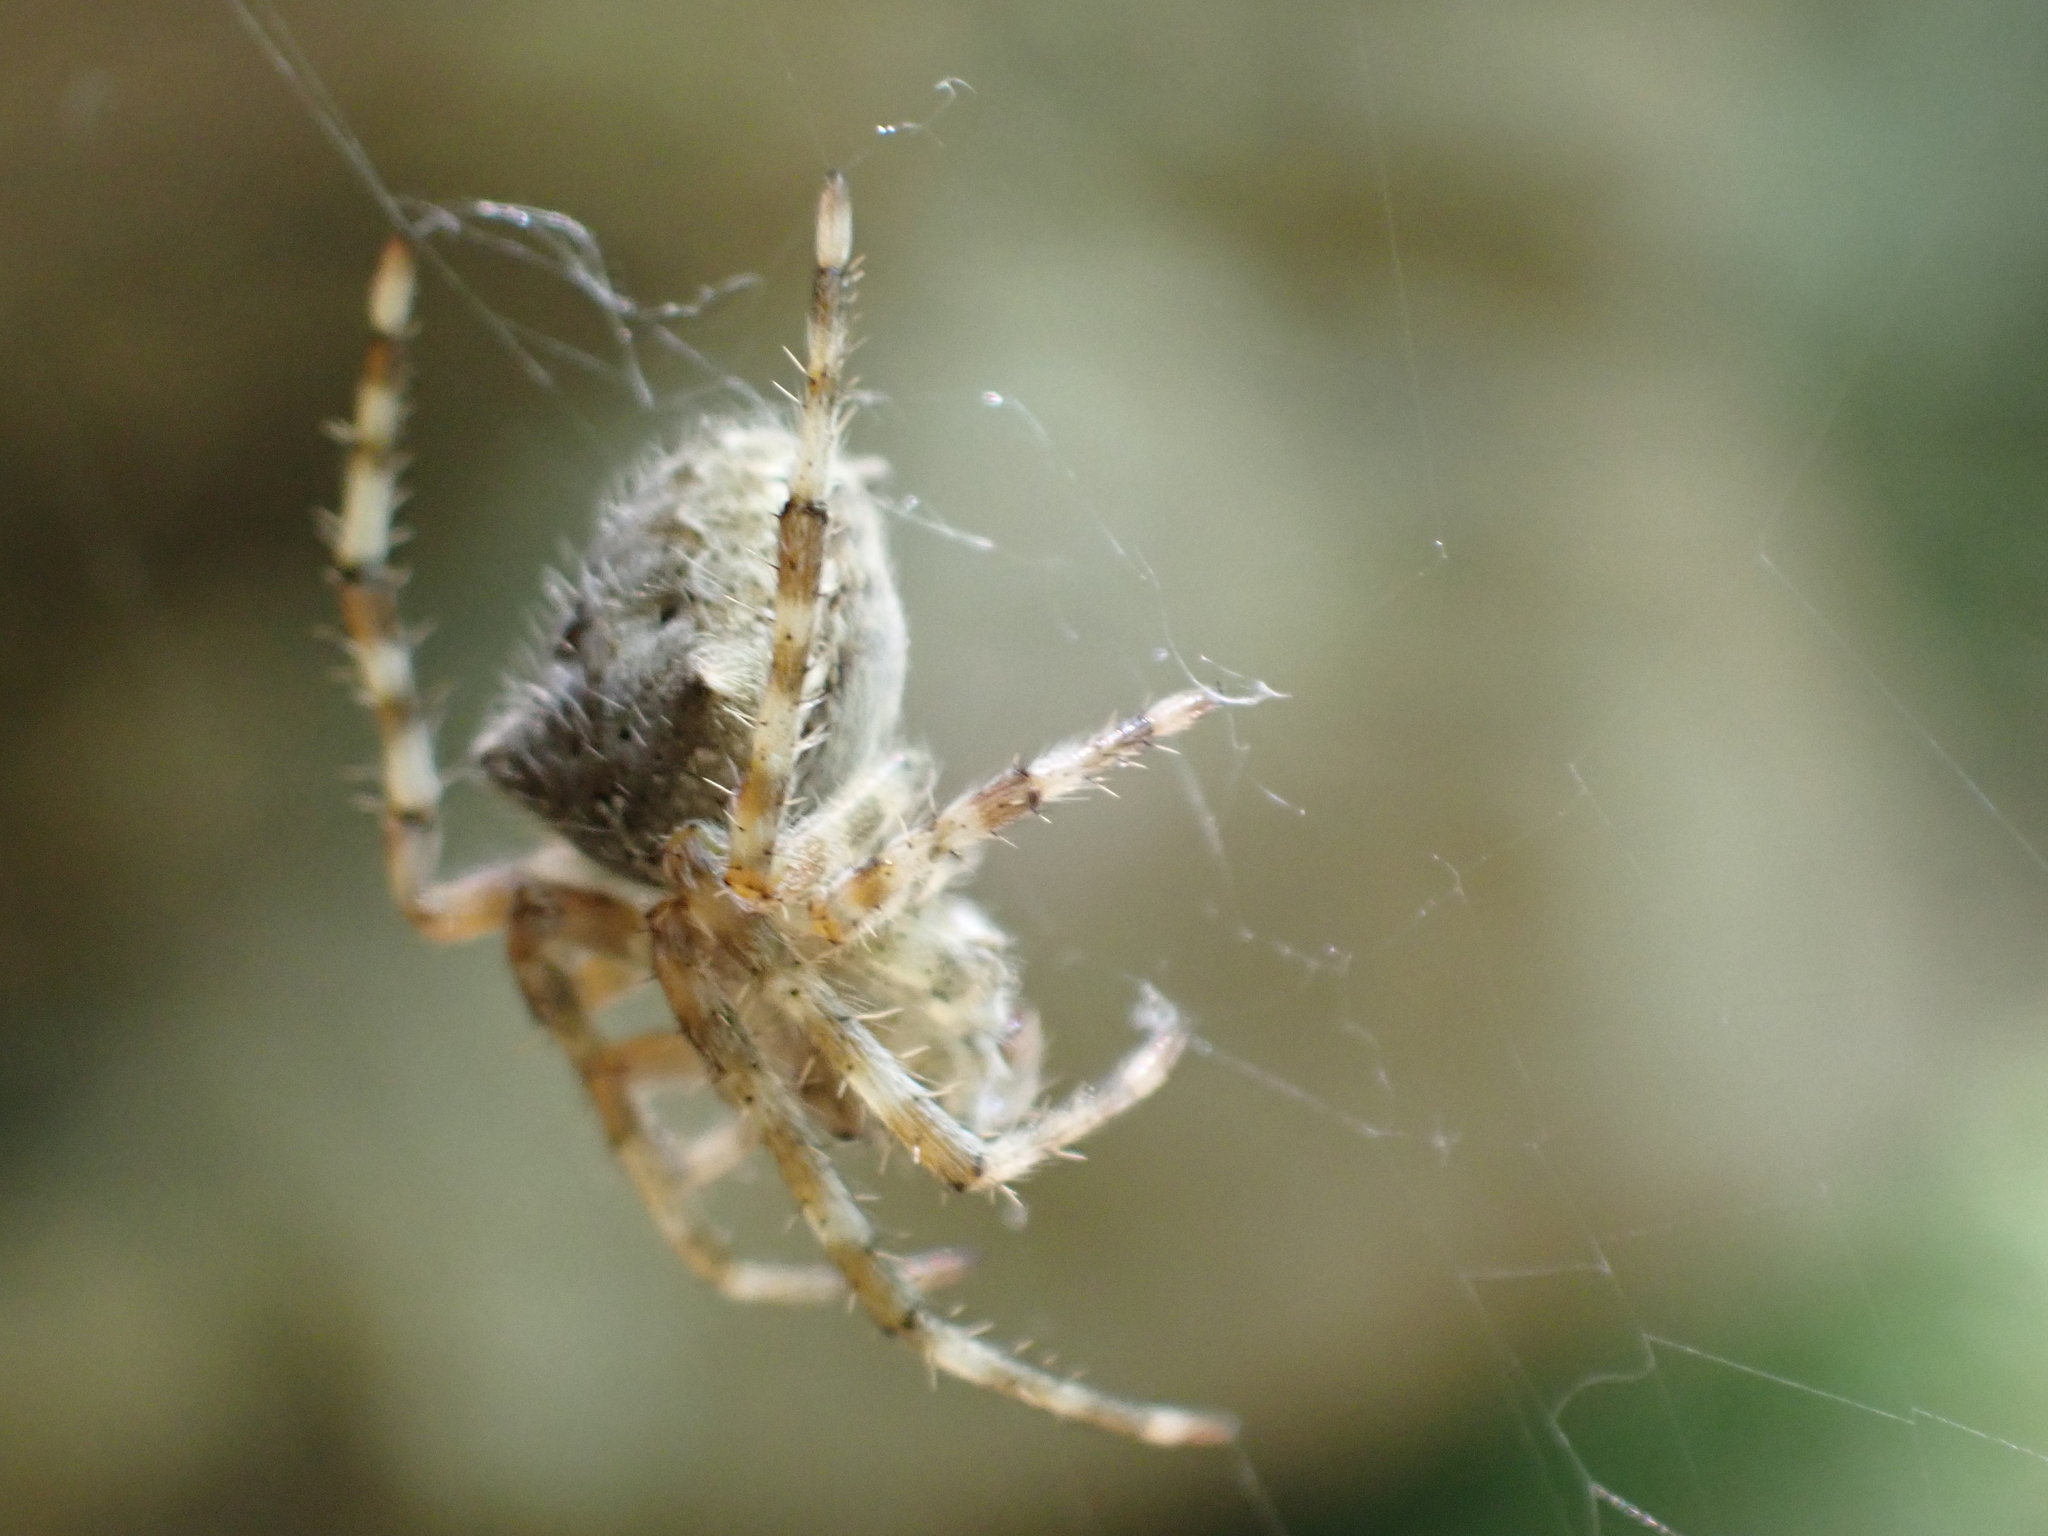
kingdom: Animalia
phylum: Arthropoda
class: Arachnida
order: Araneae
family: Araneidae
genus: Araneus
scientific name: Araneus cavaticus
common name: Barn orbweaver
